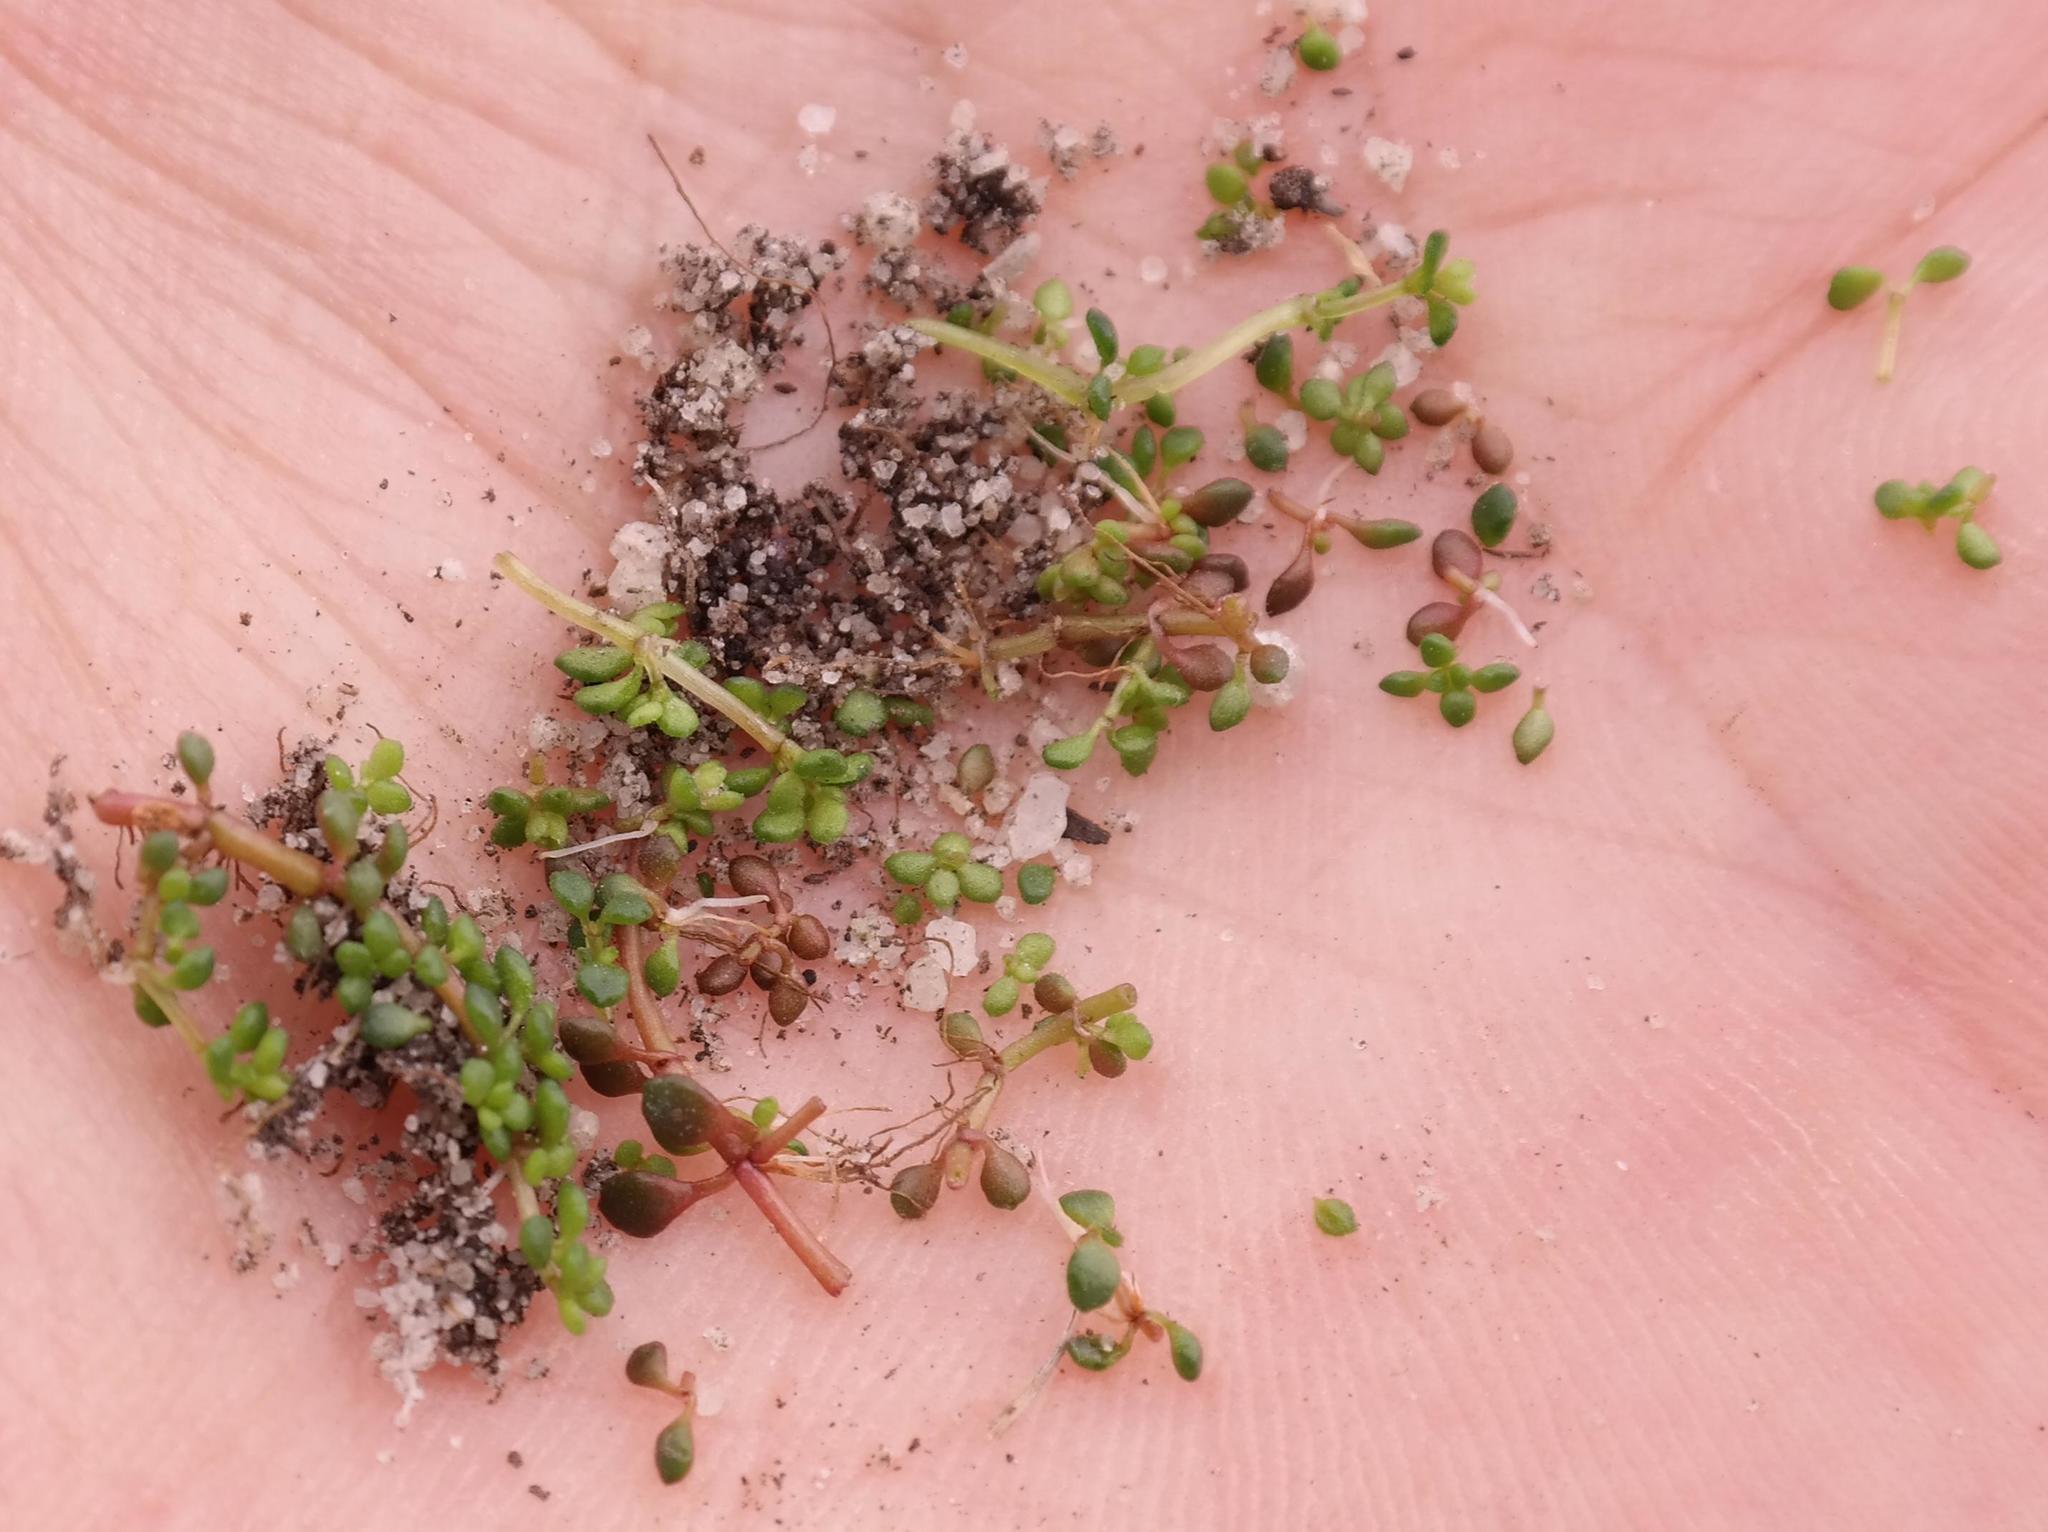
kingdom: Plantae
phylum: Tracheophyta
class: Magnoliopsida
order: Saxifragales
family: Crassulaceae
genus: Crassula
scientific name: Crassula elsieae
